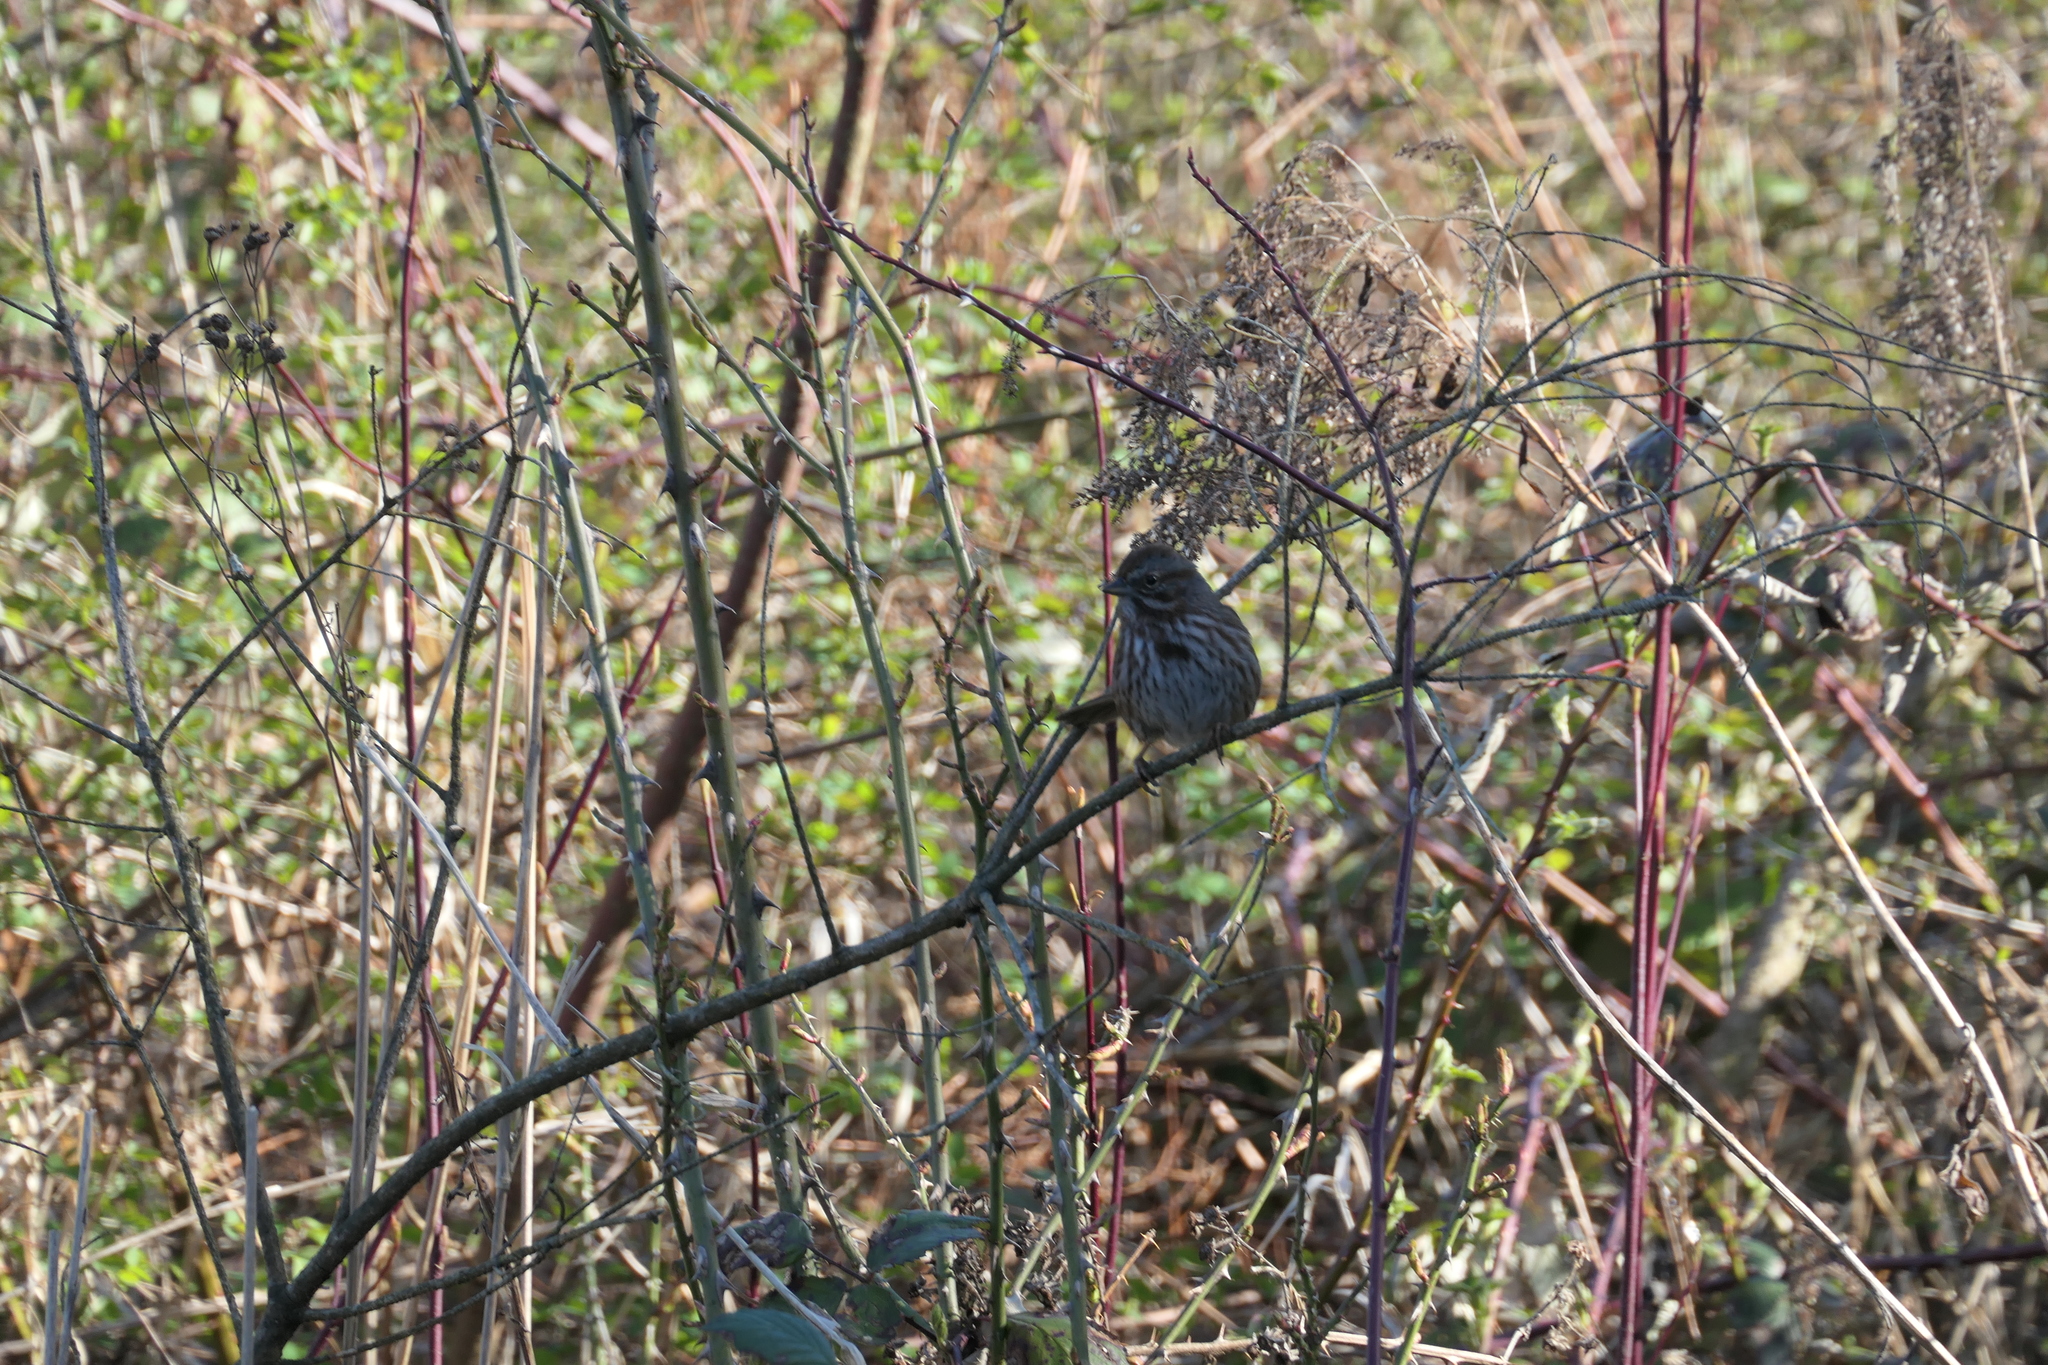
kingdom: Animalia
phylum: Chordata
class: Aves
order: Passeriformes
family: Passerellidae
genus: Melospiza
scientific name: Melospiza melodia
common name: Song sparrow
